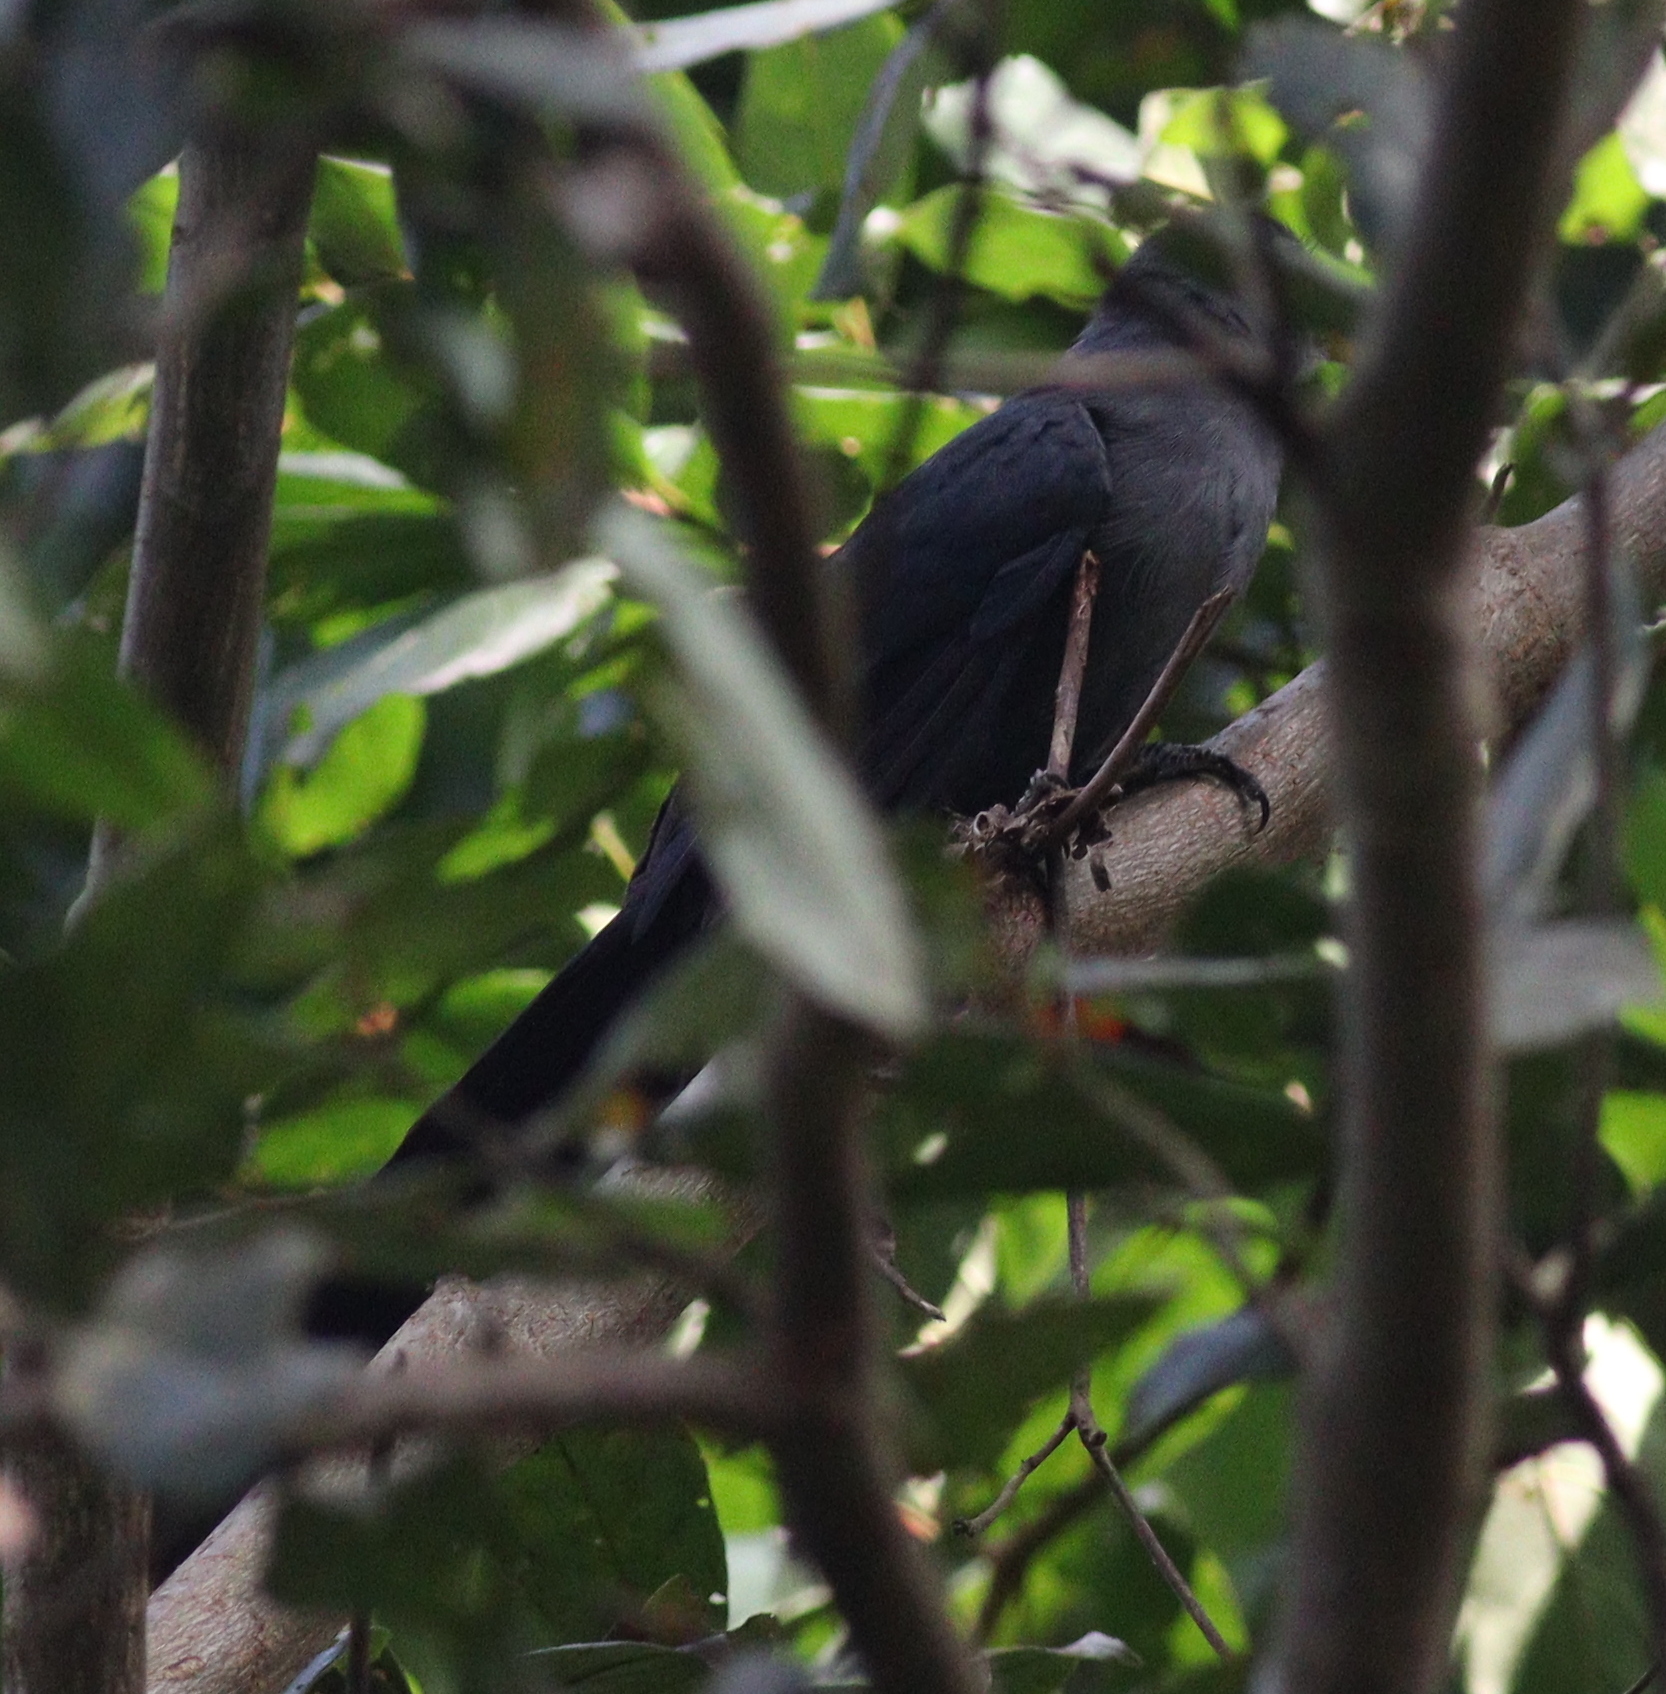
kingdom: Animalia
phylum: Chordata
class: Aves
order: Cuculiformes
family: Cuculidae
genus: Ceuthmochares
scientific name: Ceuthmochares aereus
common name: Blue malkoha
